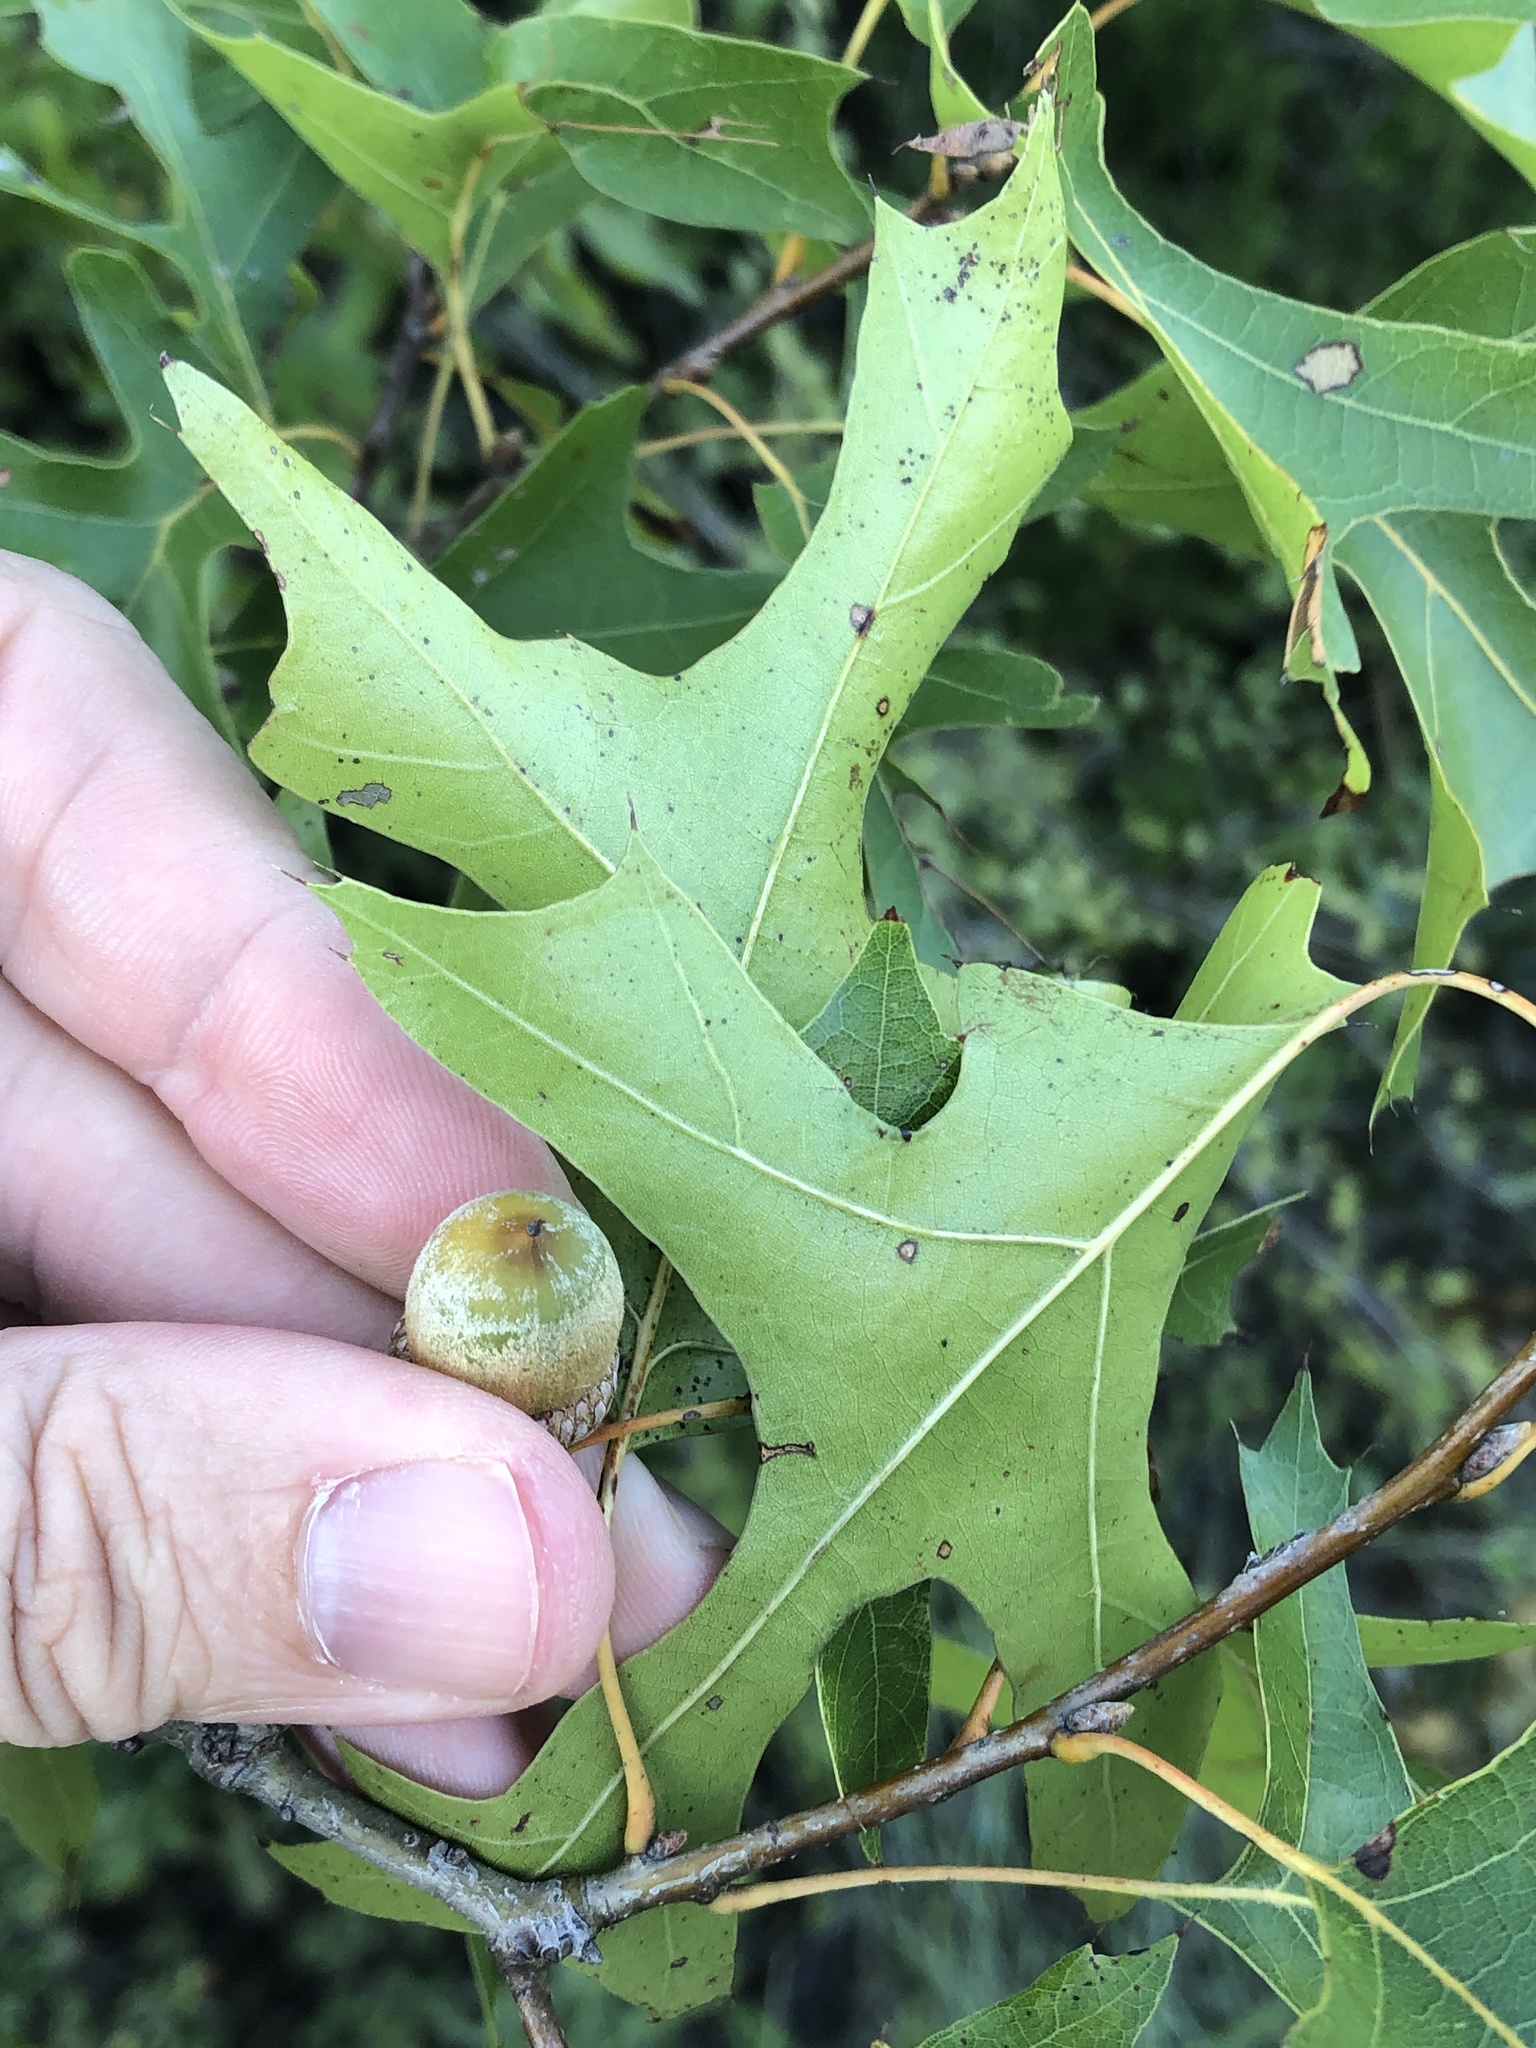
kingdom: Plantae
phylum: Tracheophyta
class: Magnoliopsida
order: Fagales
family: Fagaceae
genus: Quercus
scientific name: Quercus buckleyi
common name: Buckley oak
